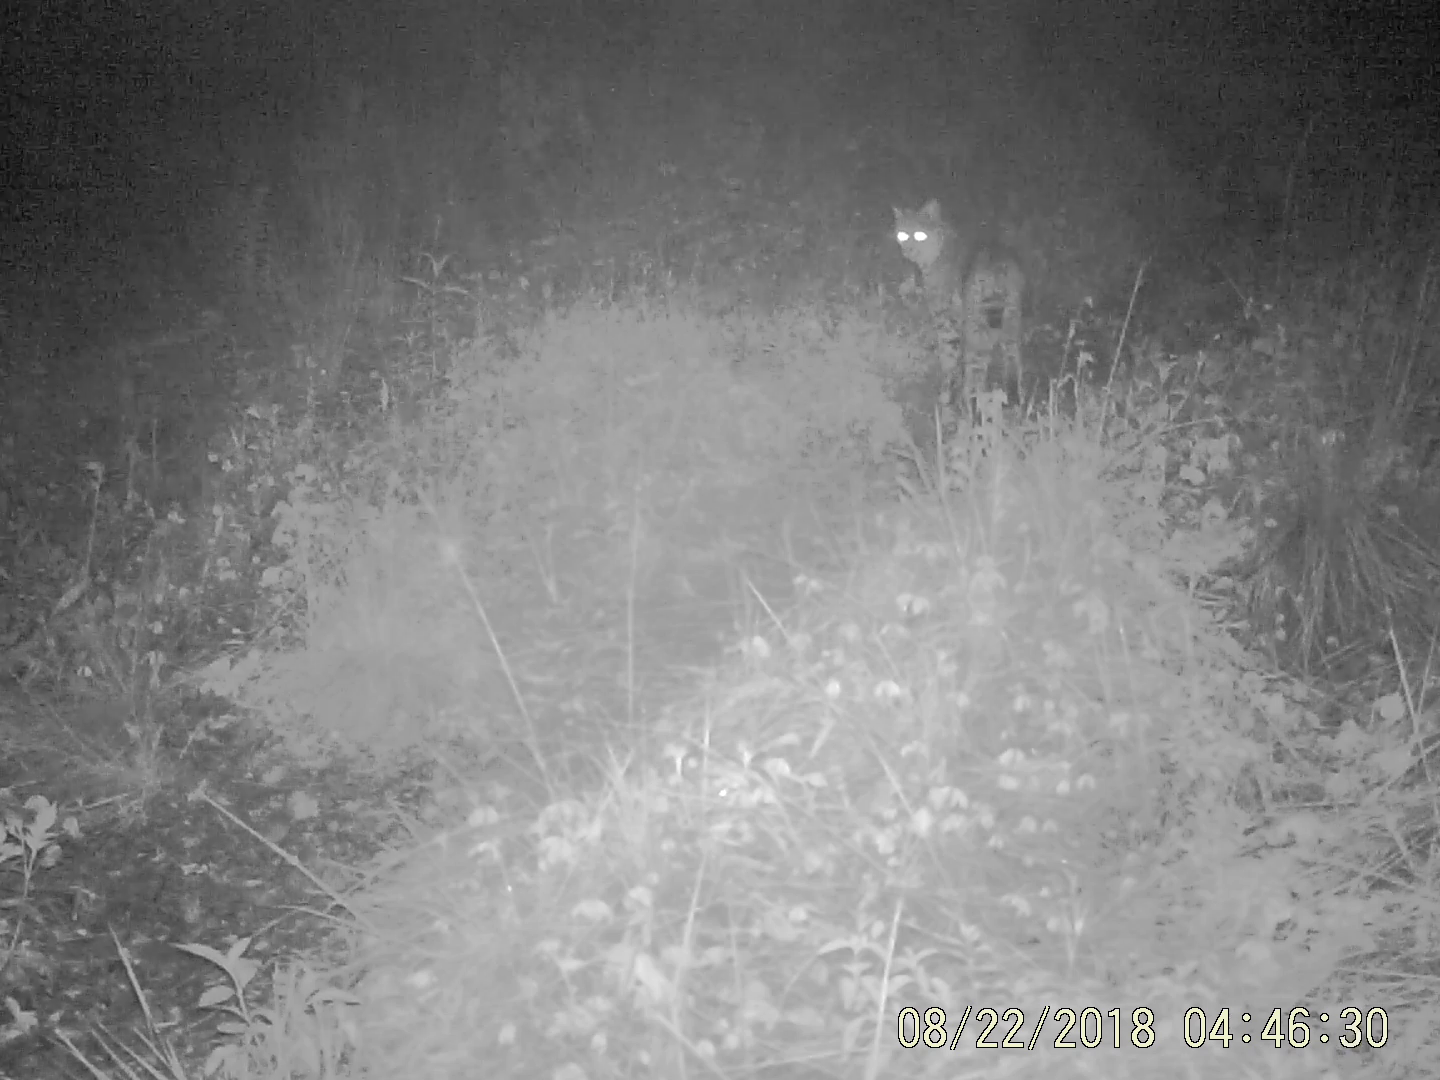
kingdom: Animalia
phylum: Chordata
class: Mammalia
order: Carnivora
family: Felidae
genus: Lynx
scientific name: Lynx rufus
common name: Bobcat
